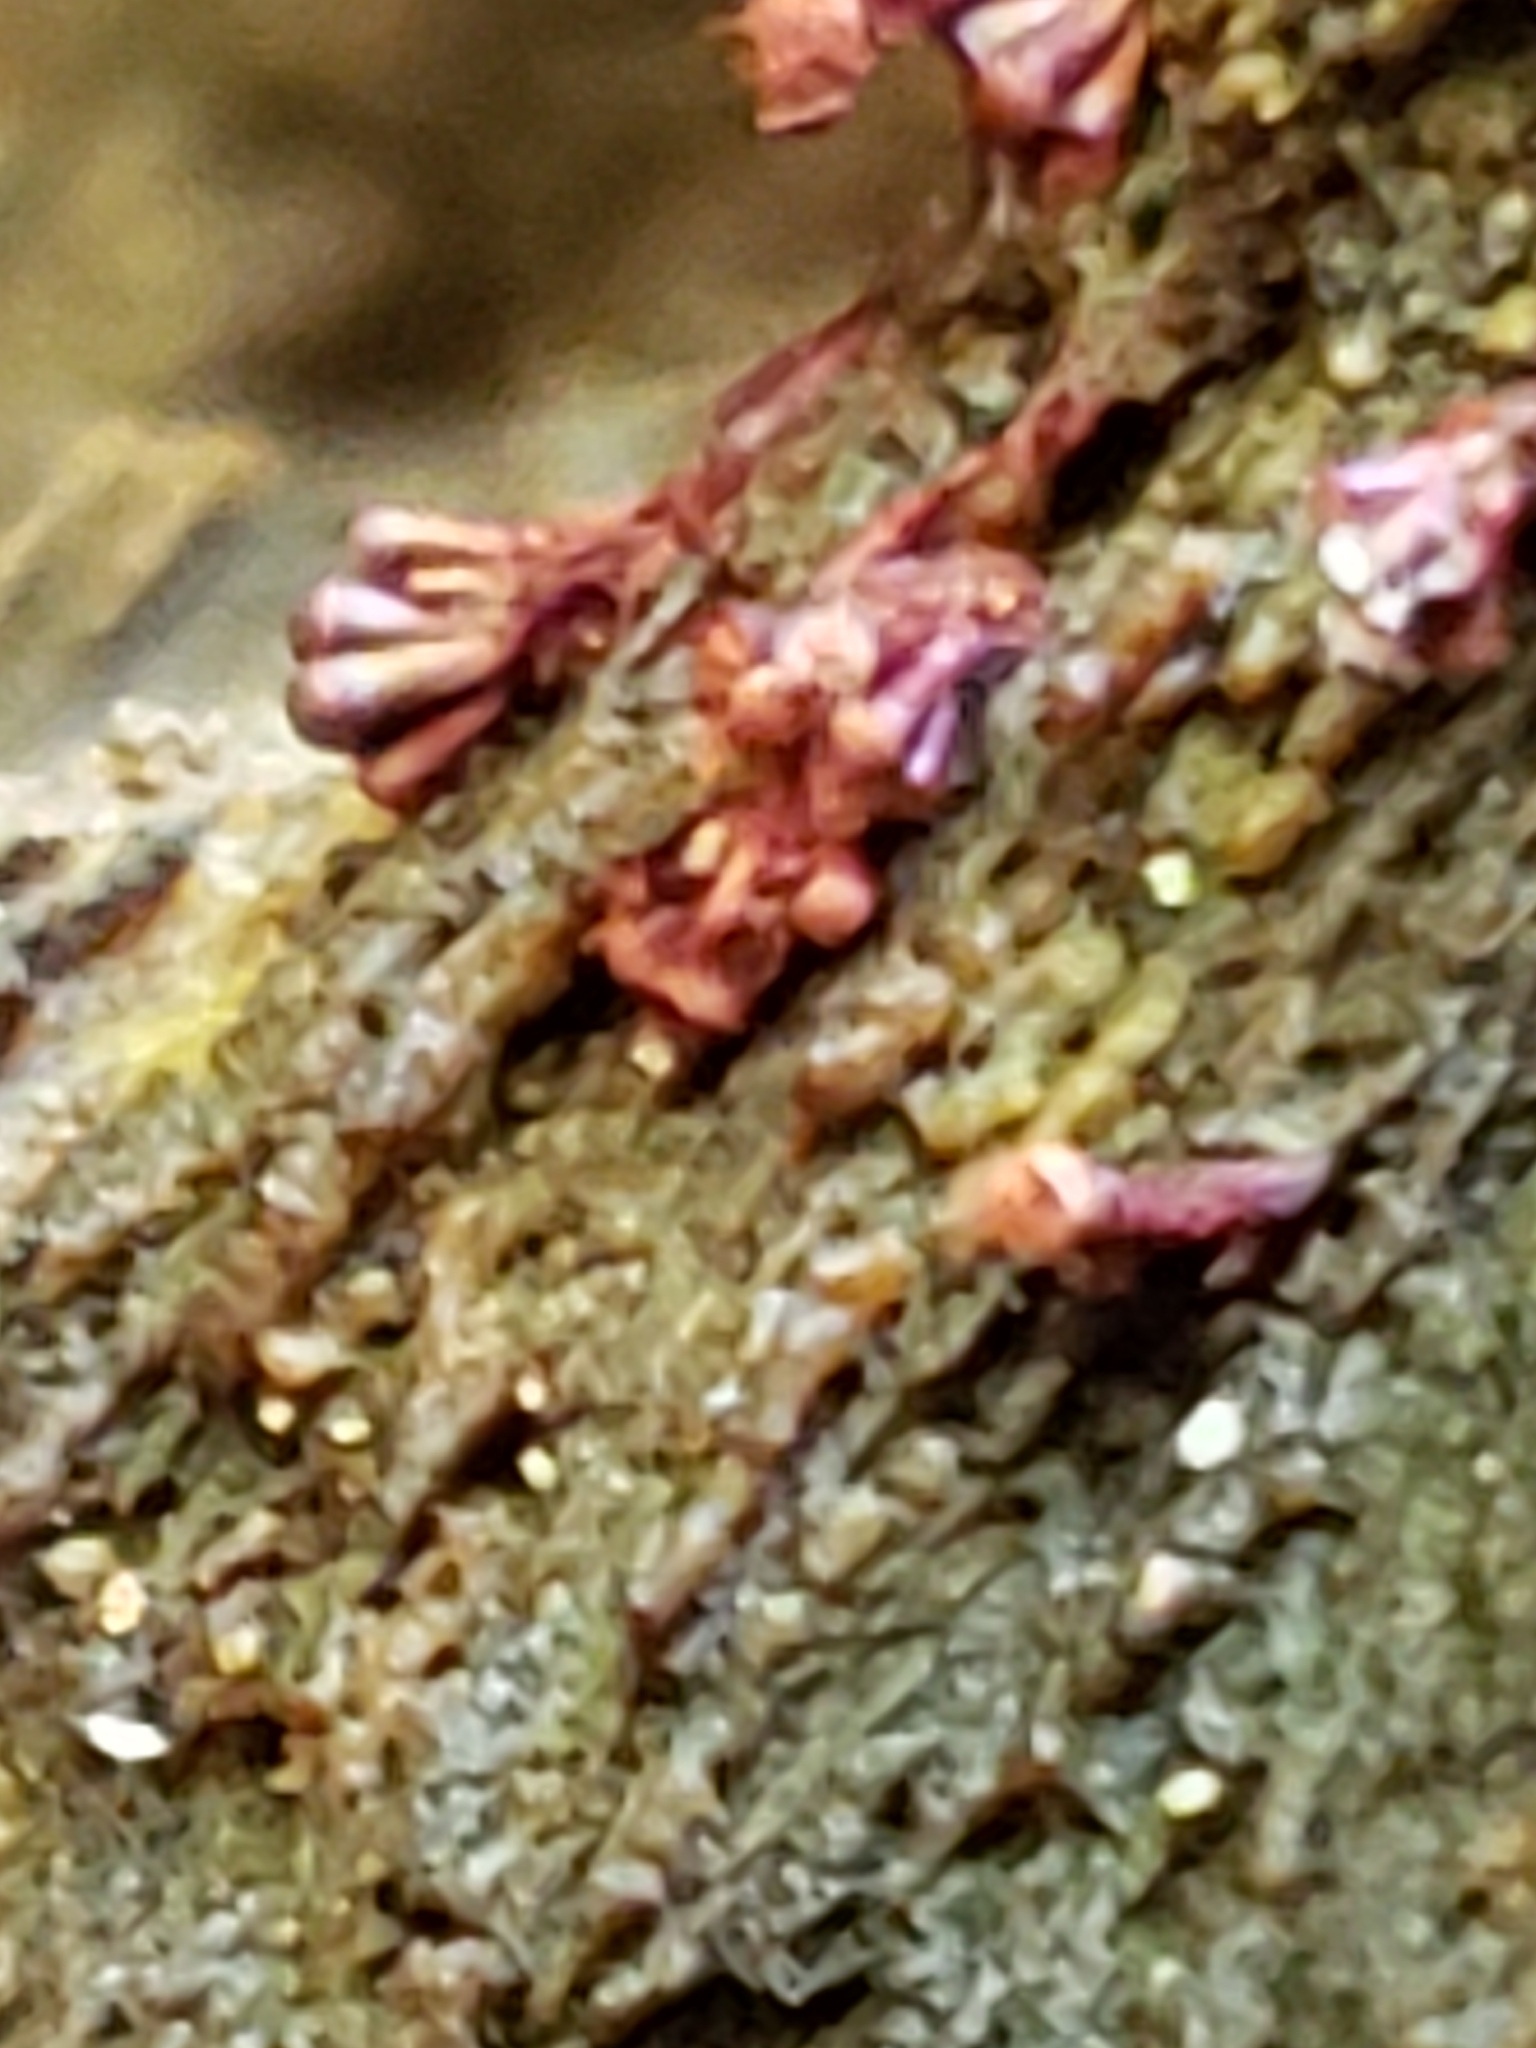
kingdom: Protozoa
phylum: Mycetozoa
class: Myxomycetes
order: Trichiales
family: Trichiaceae
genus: Metatrichia
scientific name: Metatrichia vesparia
